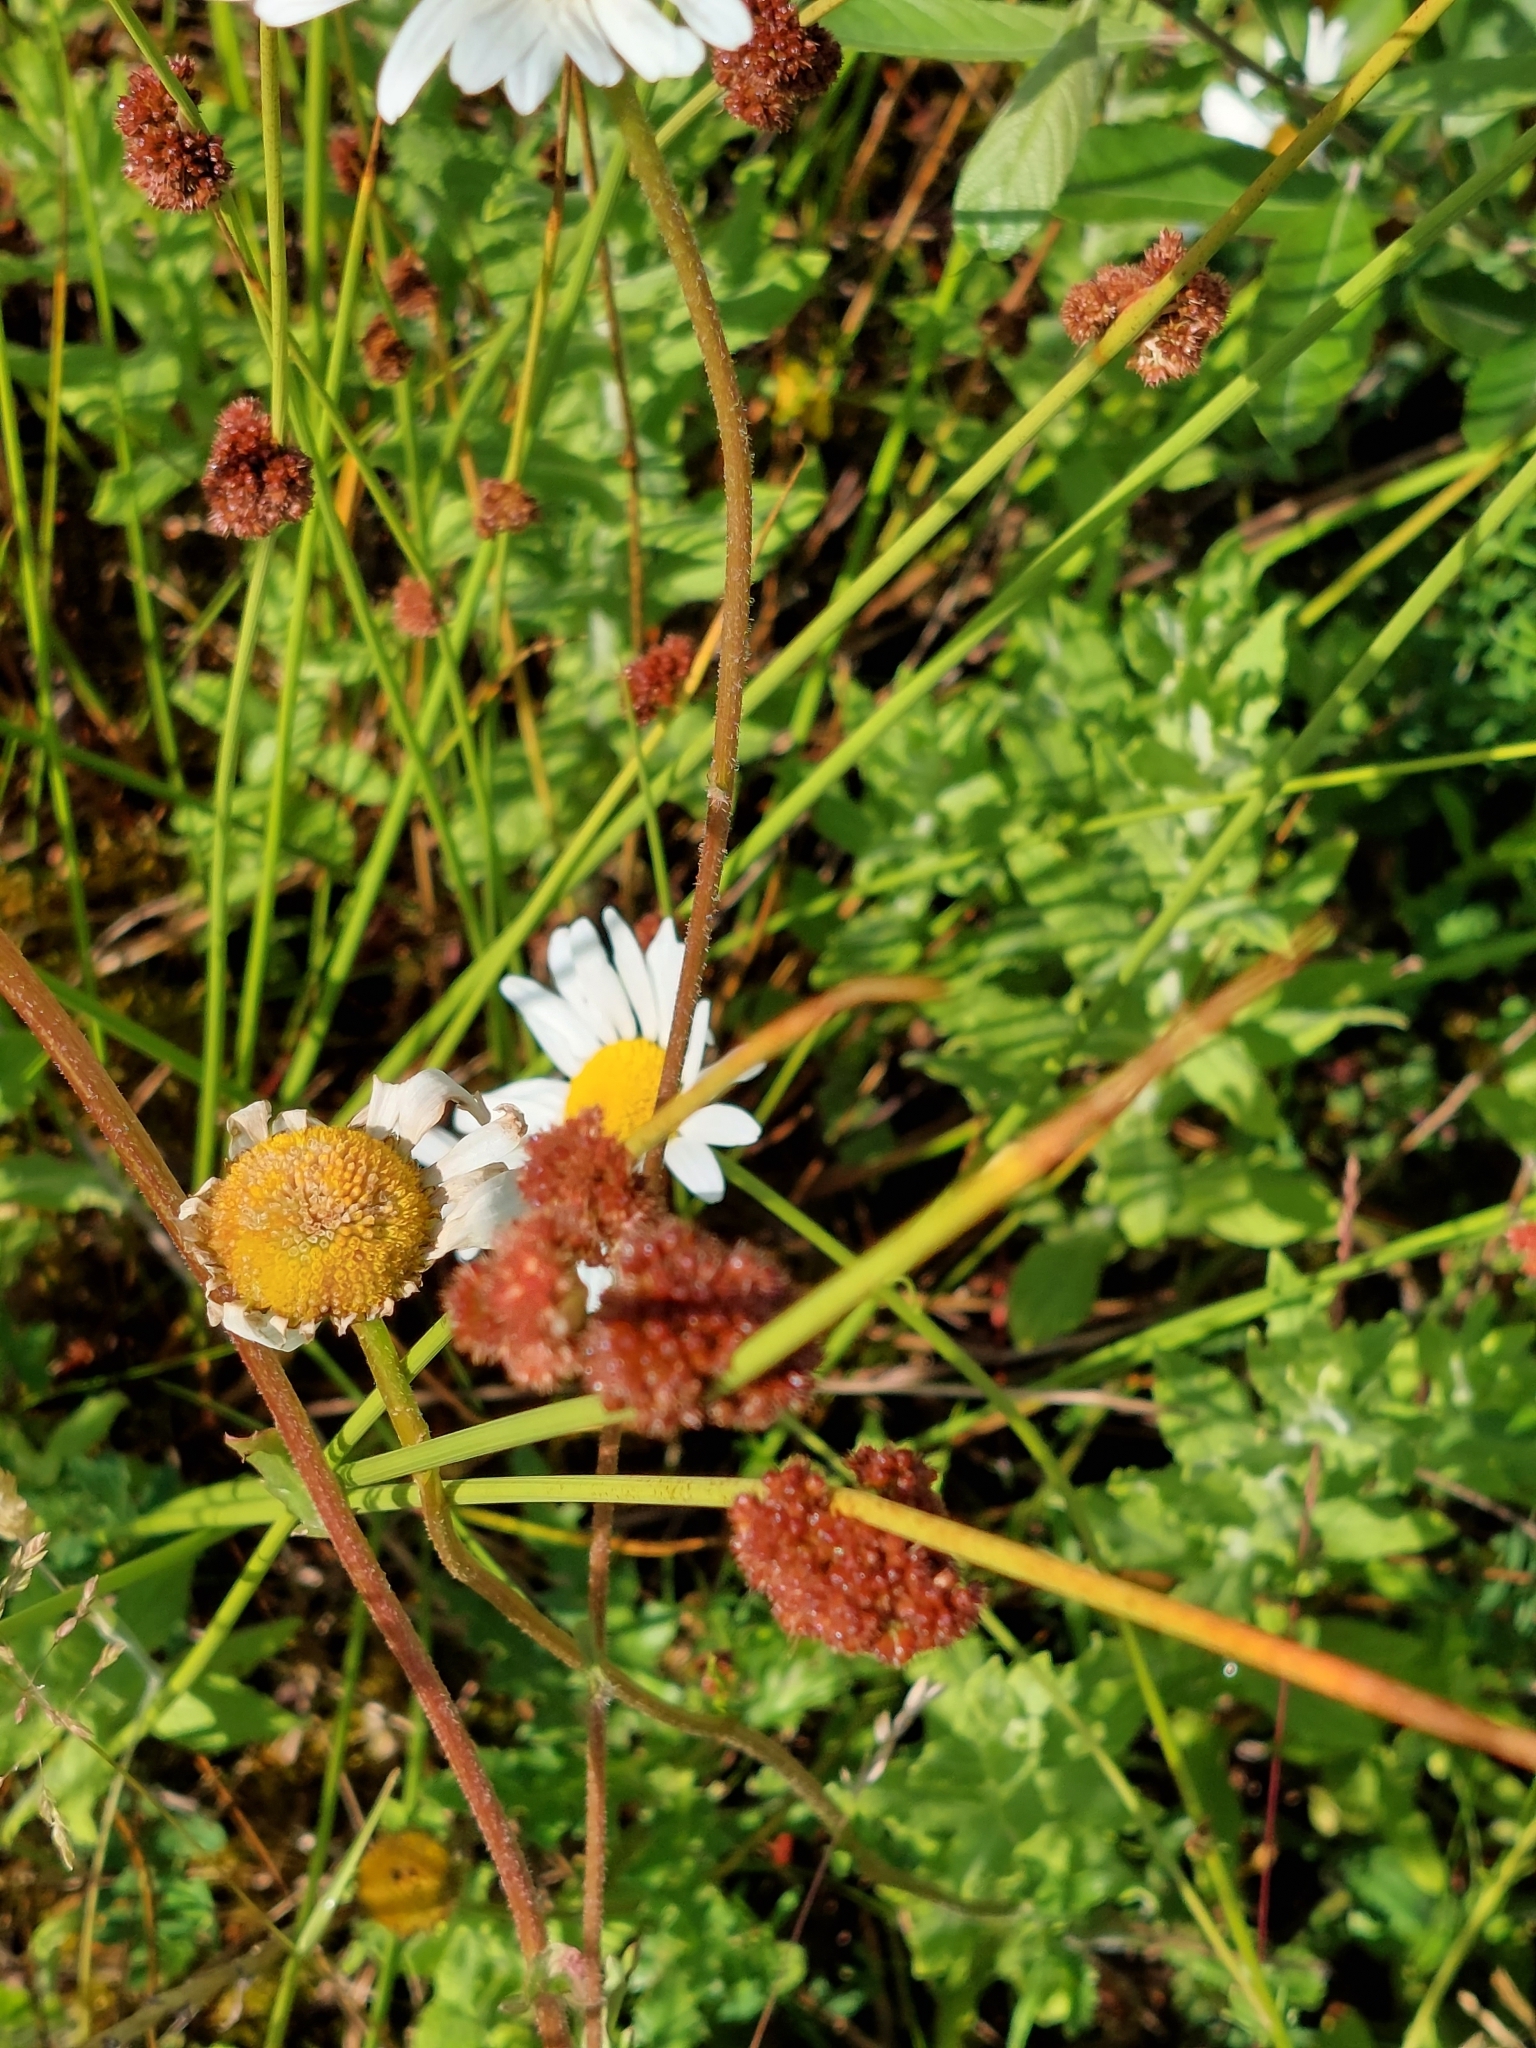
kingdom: Plantae
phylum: Tracheophyta
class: Liliopsida
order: Poales
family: Juncaceae
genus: Juncus
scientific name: Juncus conglomeratus
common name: Compact rush
